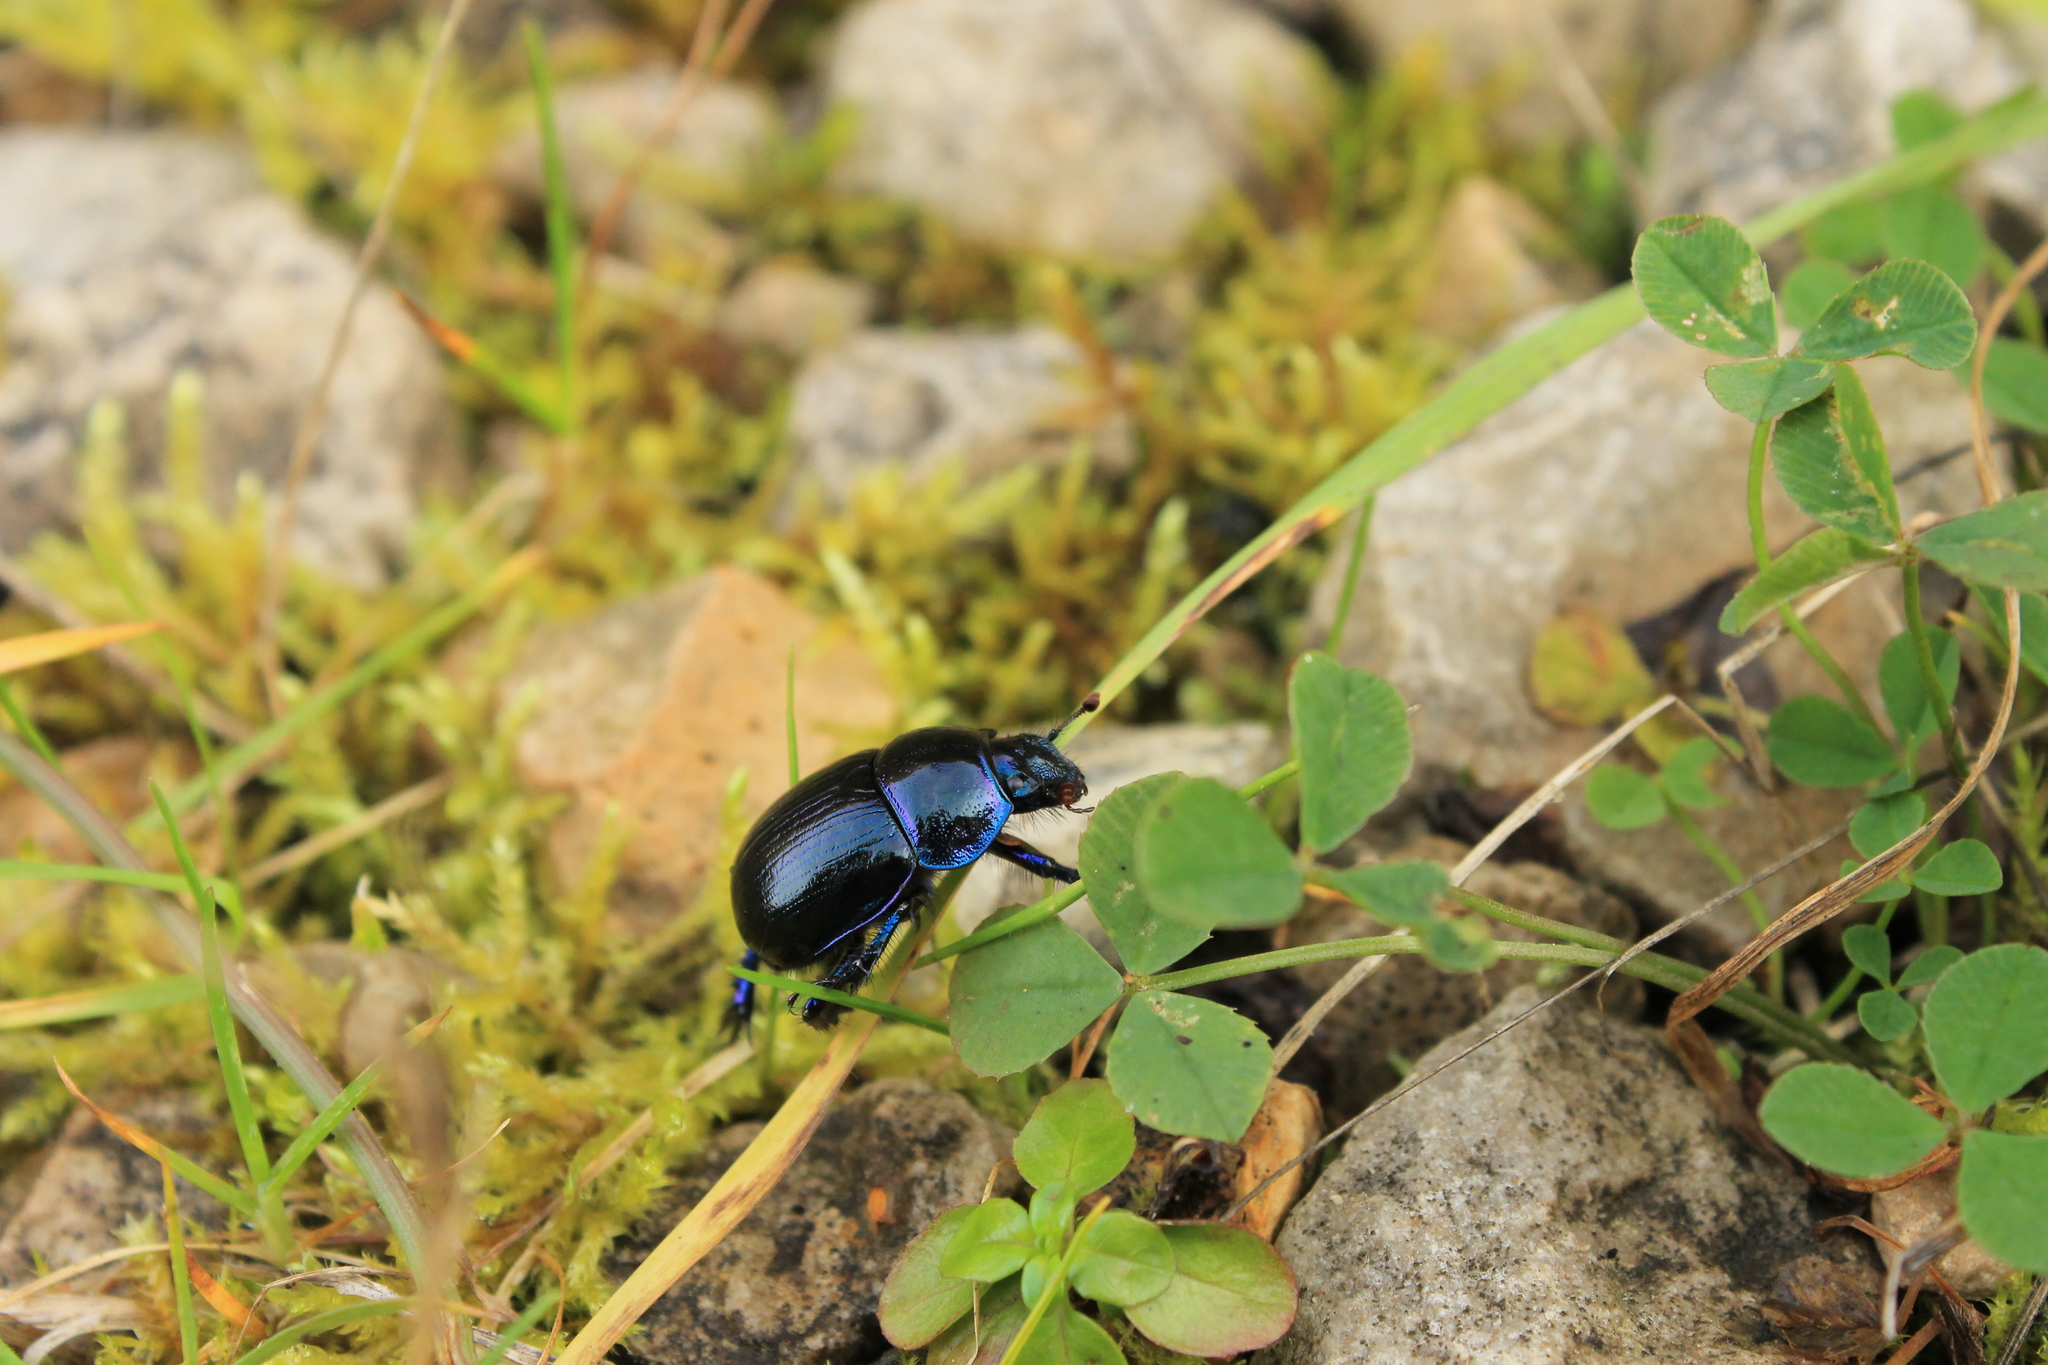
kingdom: Animalia
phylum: Arthropoda
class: Insecta
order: Coleoptera
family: Geotrupidae
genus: Anoplotrupes
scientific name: Anoplotrupes stercorosus
